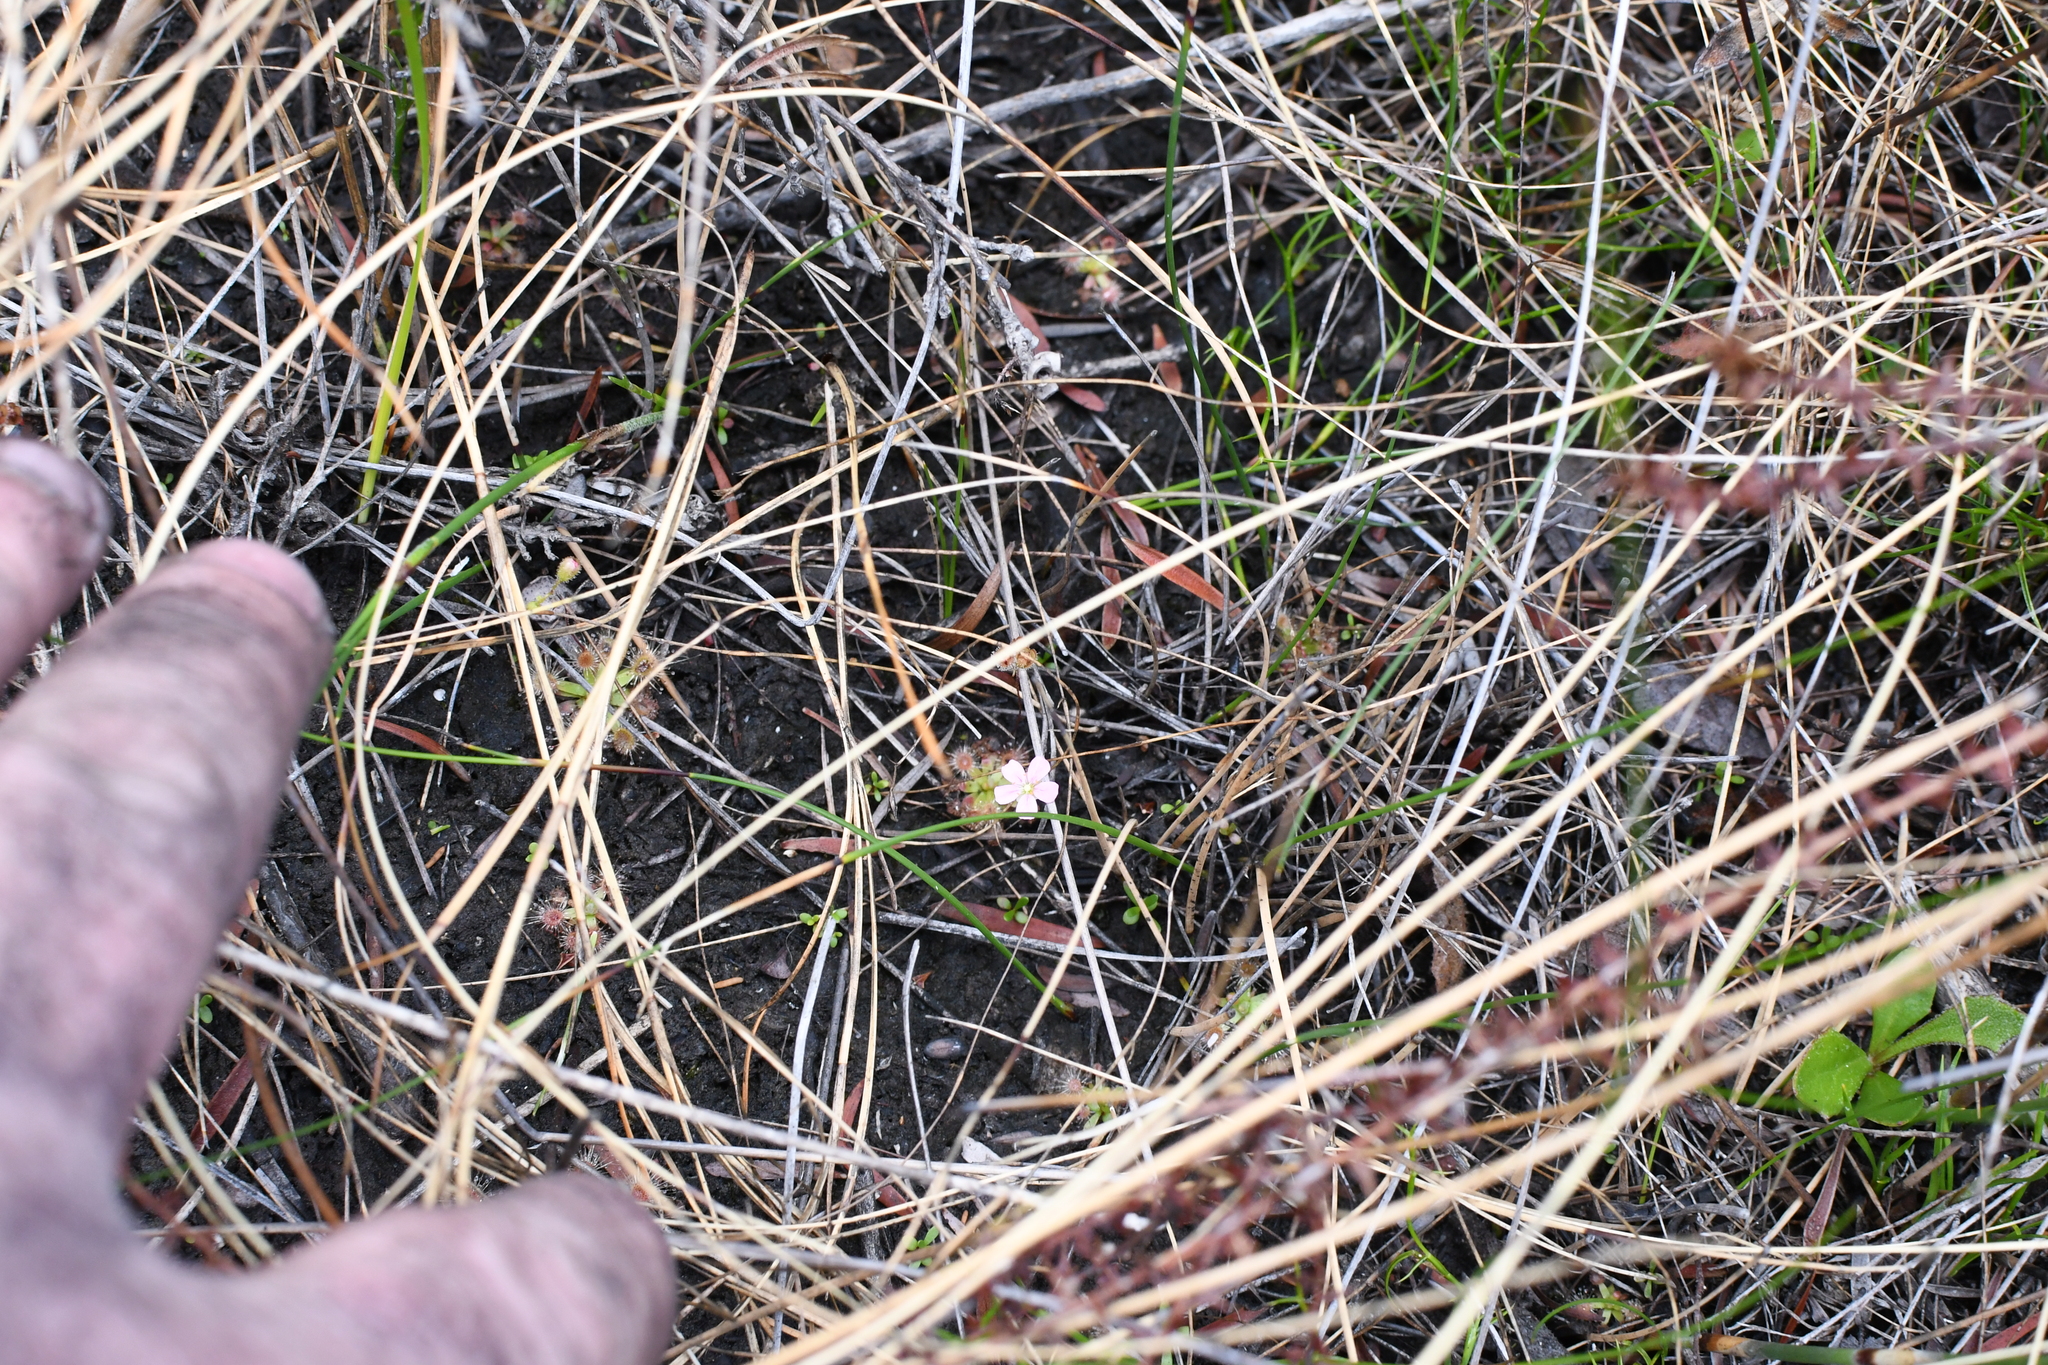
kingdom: Plantae
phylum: Tracheophyta
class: Magnoliopsida
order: Caryophyllales
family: Droseraceae
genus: Drosera
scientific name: Drosera pulchella
